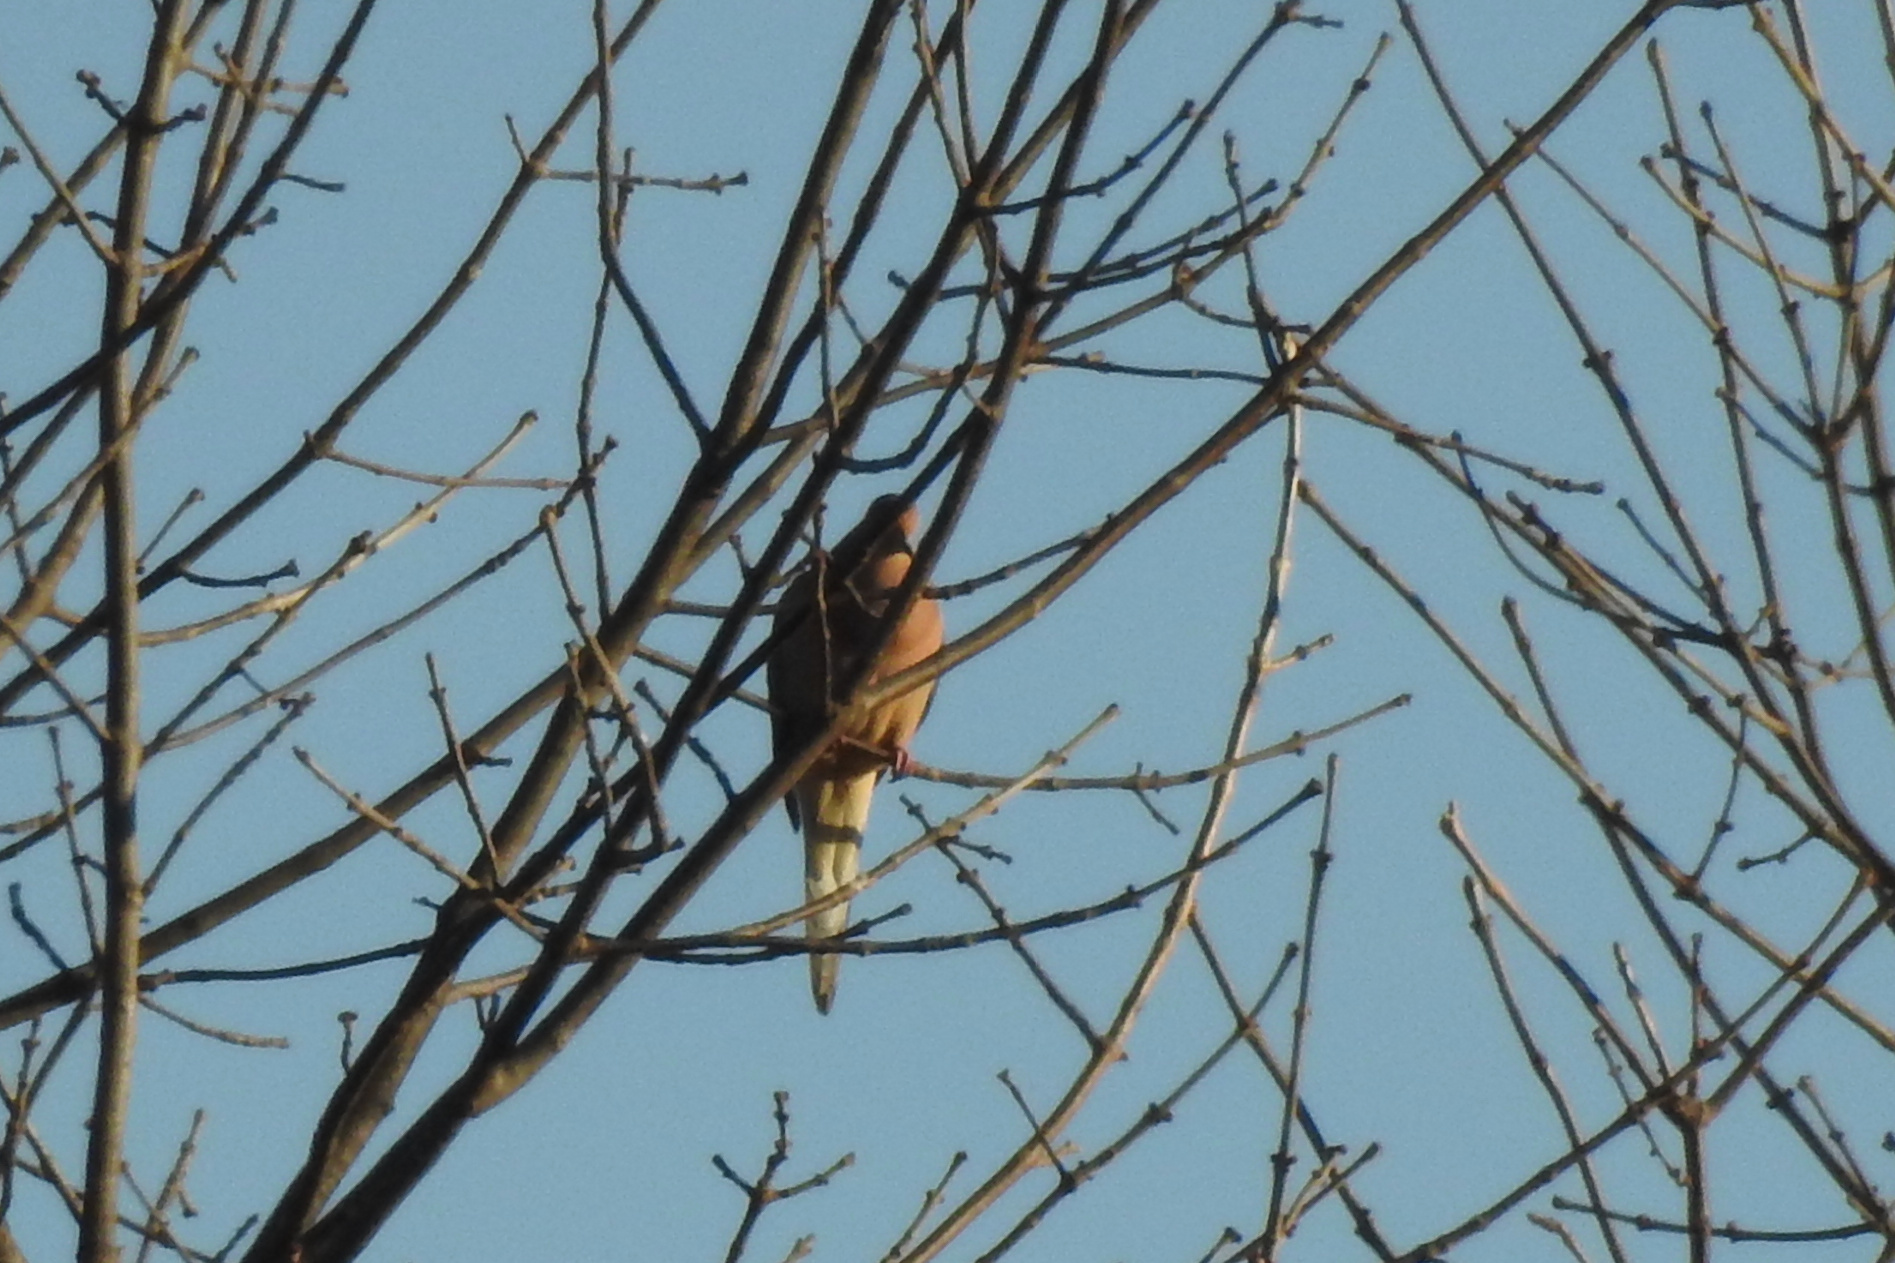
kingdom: Animalia
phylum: Chordata
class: Aves
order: Columbiformes
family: Columbidae
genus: Zenaida
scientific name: Zenaida macroura
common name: Mourning dove
